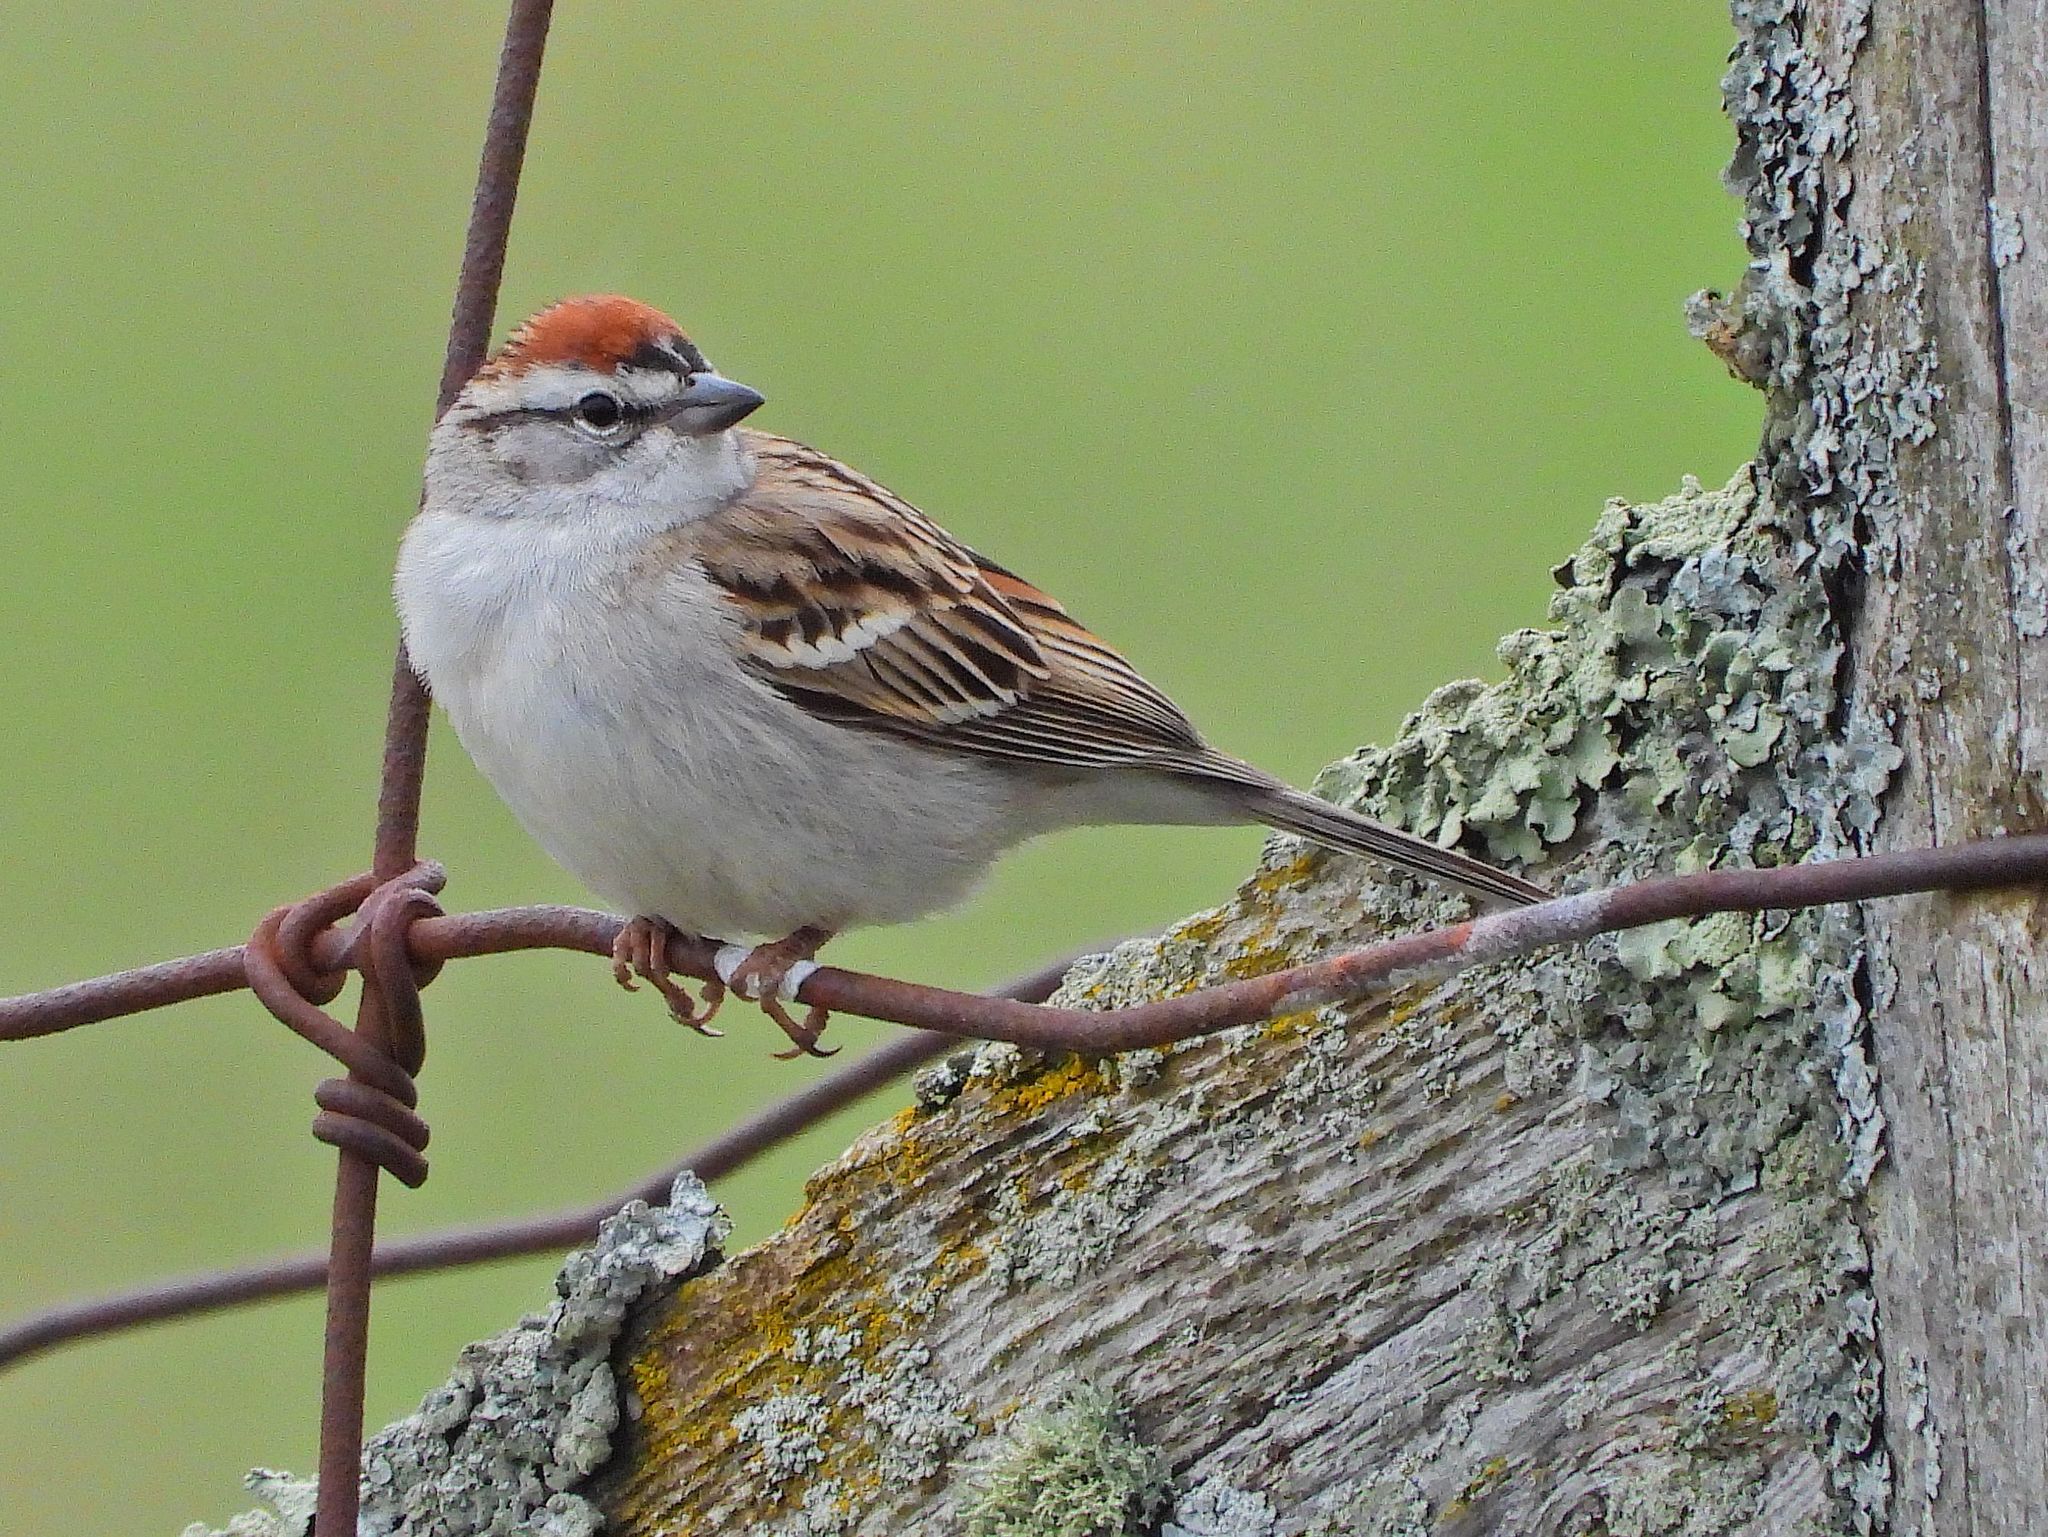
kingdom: Animalia
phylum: Chordata
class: Aves
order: Passeriformes
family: Passerellidae
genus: Spizella
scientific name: Spizella passerina
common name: Chipping sparrow
